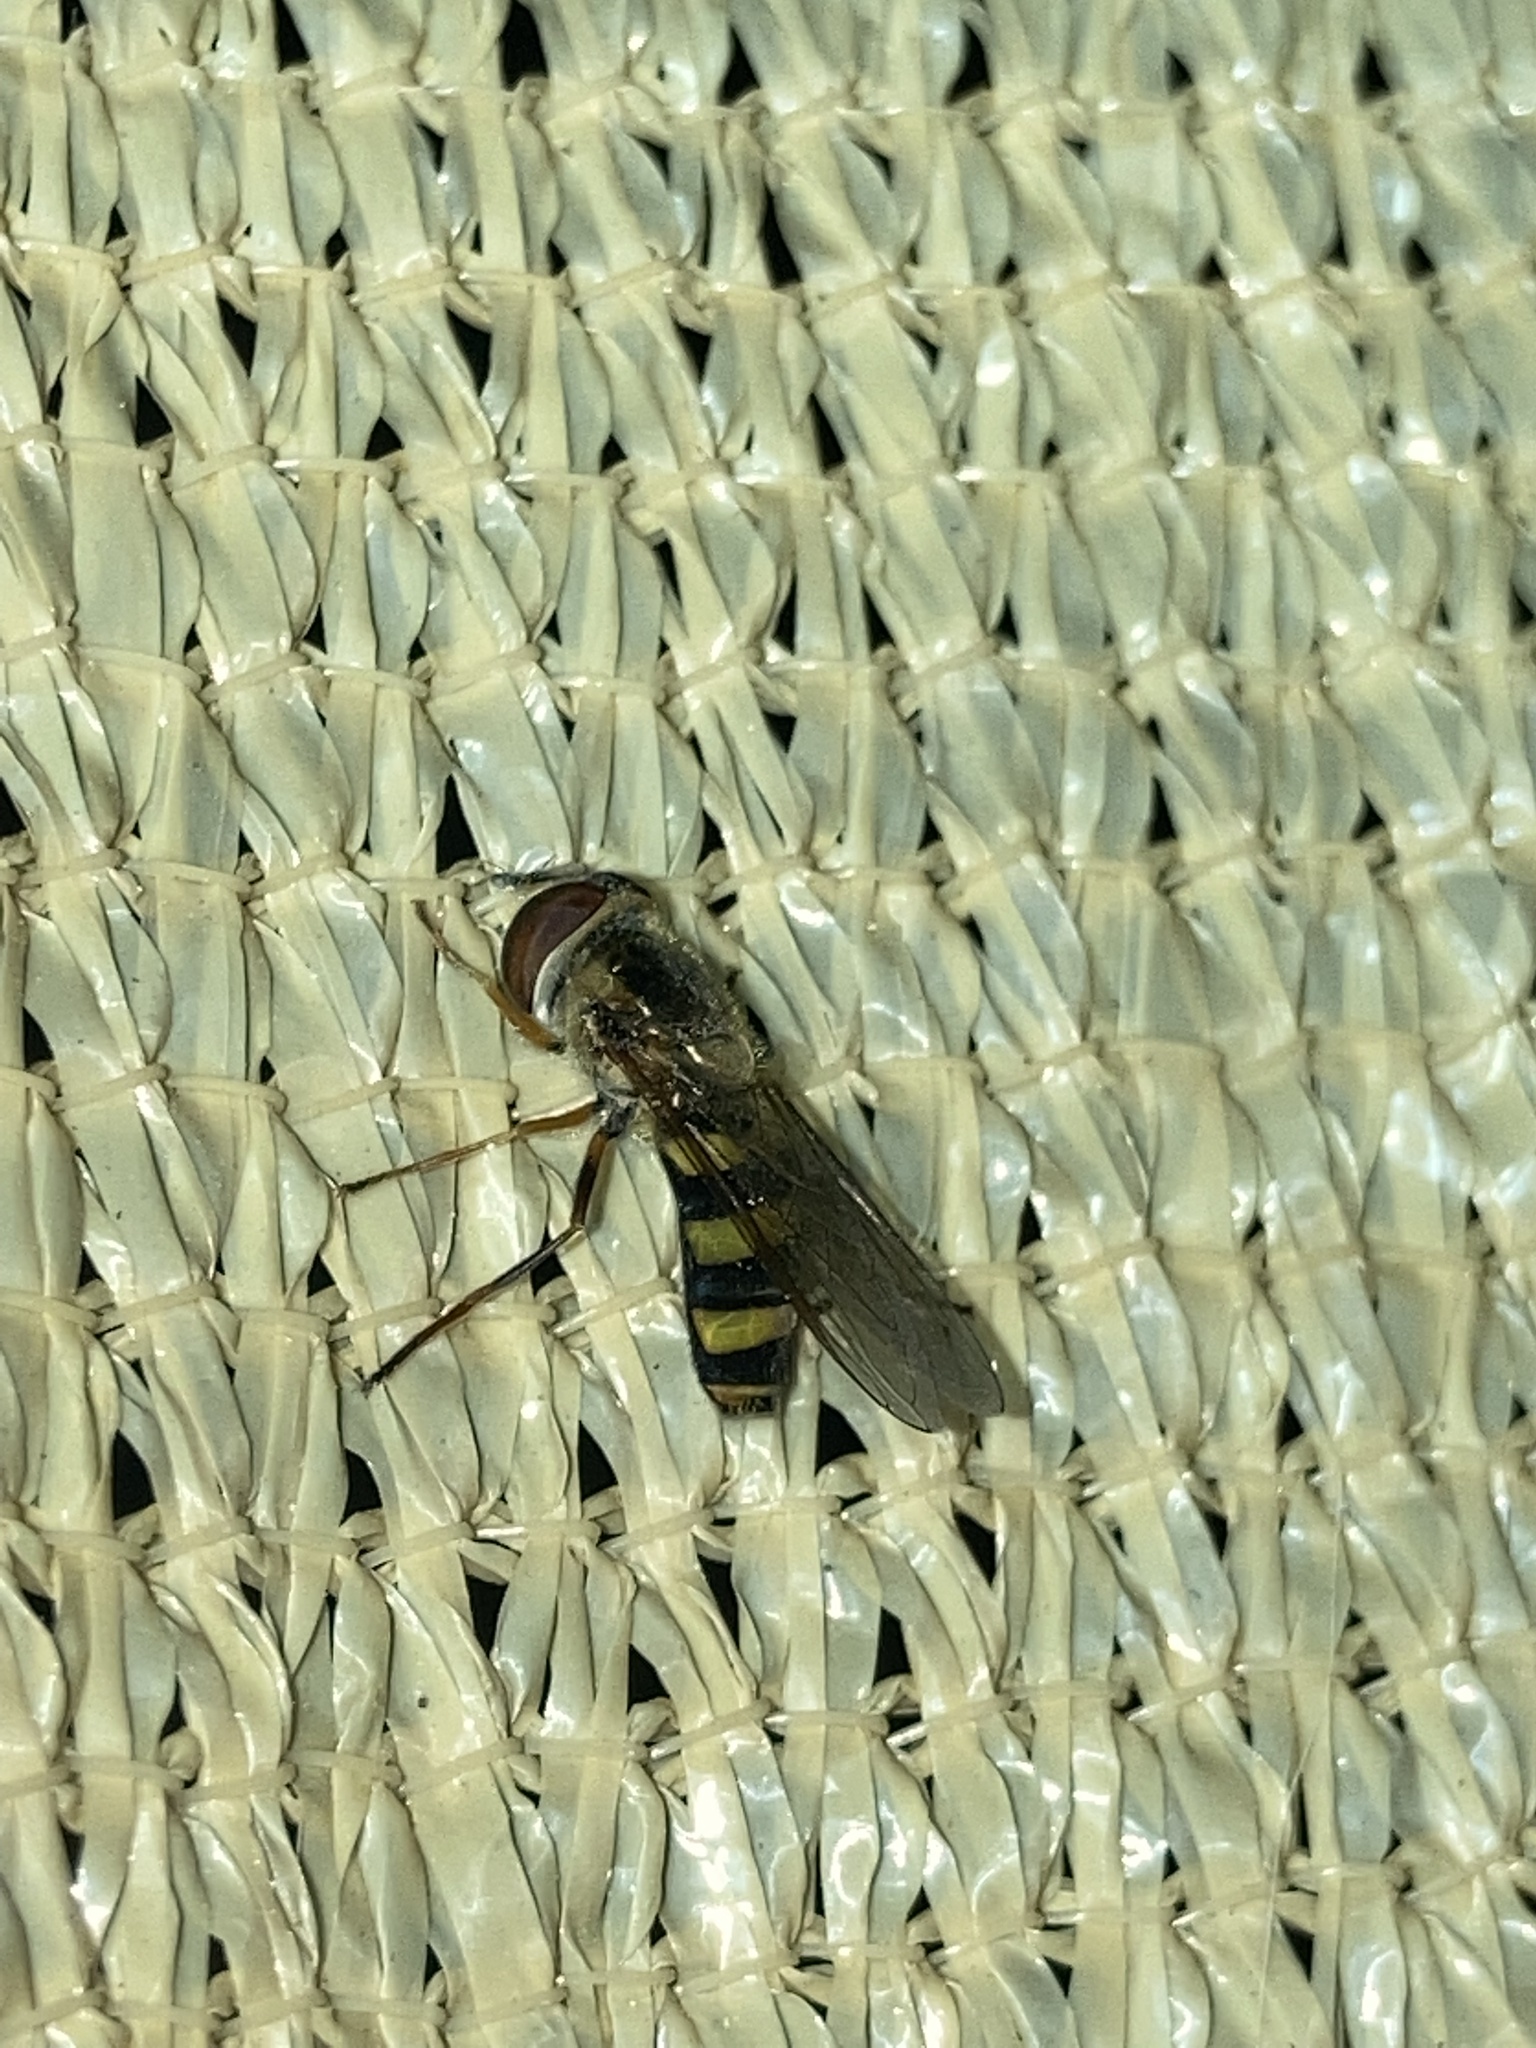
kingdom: Animalia
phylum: Arthropoda
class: Insecta
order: Diptera
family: Syrphidae
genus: Eupeodes
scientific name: Eupeodes
